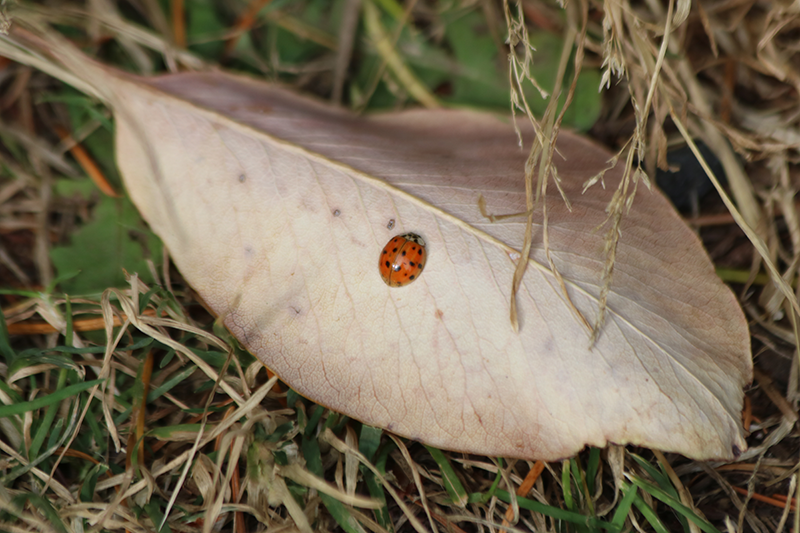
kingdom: Animalia
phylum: Arthropoda
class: Insecta
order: Coleoptera
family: Coccinellidae
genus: Harmonia
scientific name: Harmonia axyridis
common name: Harlequin ladybird
